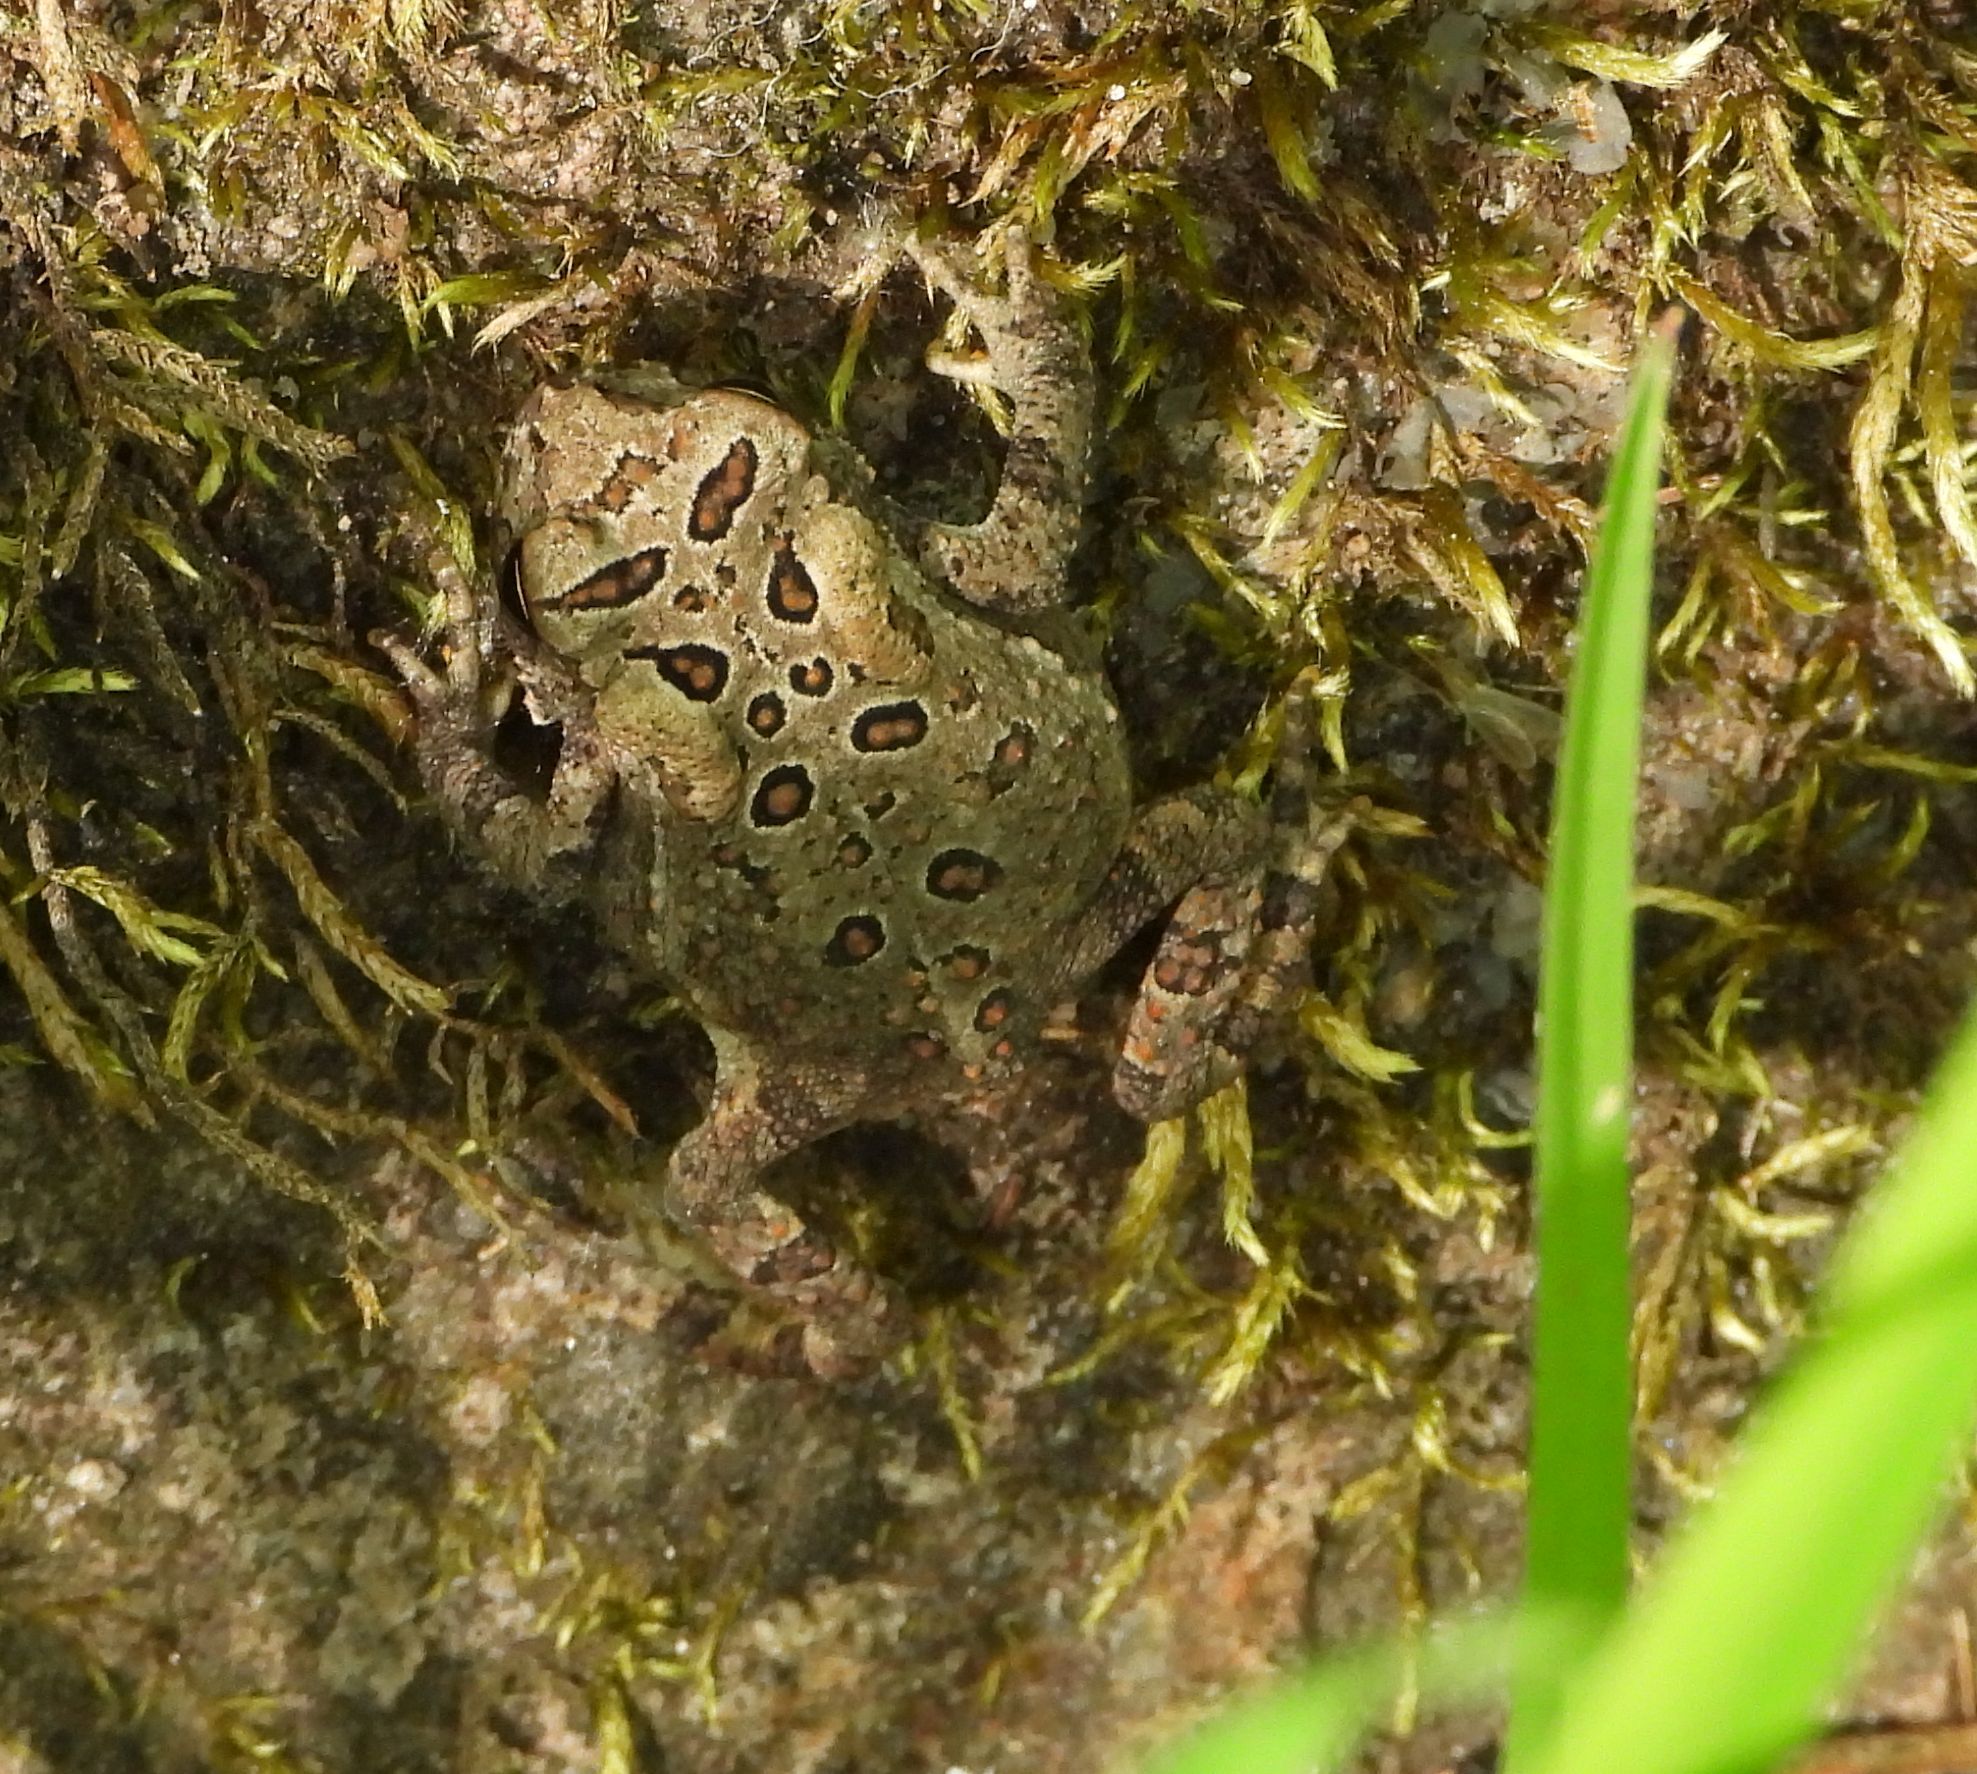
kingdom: Animalia
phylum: Chordata
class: Amphibia
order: Anura
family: Bufonidae
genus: Anaxyrus
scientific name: Anaxyrus americanus
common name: American toad
